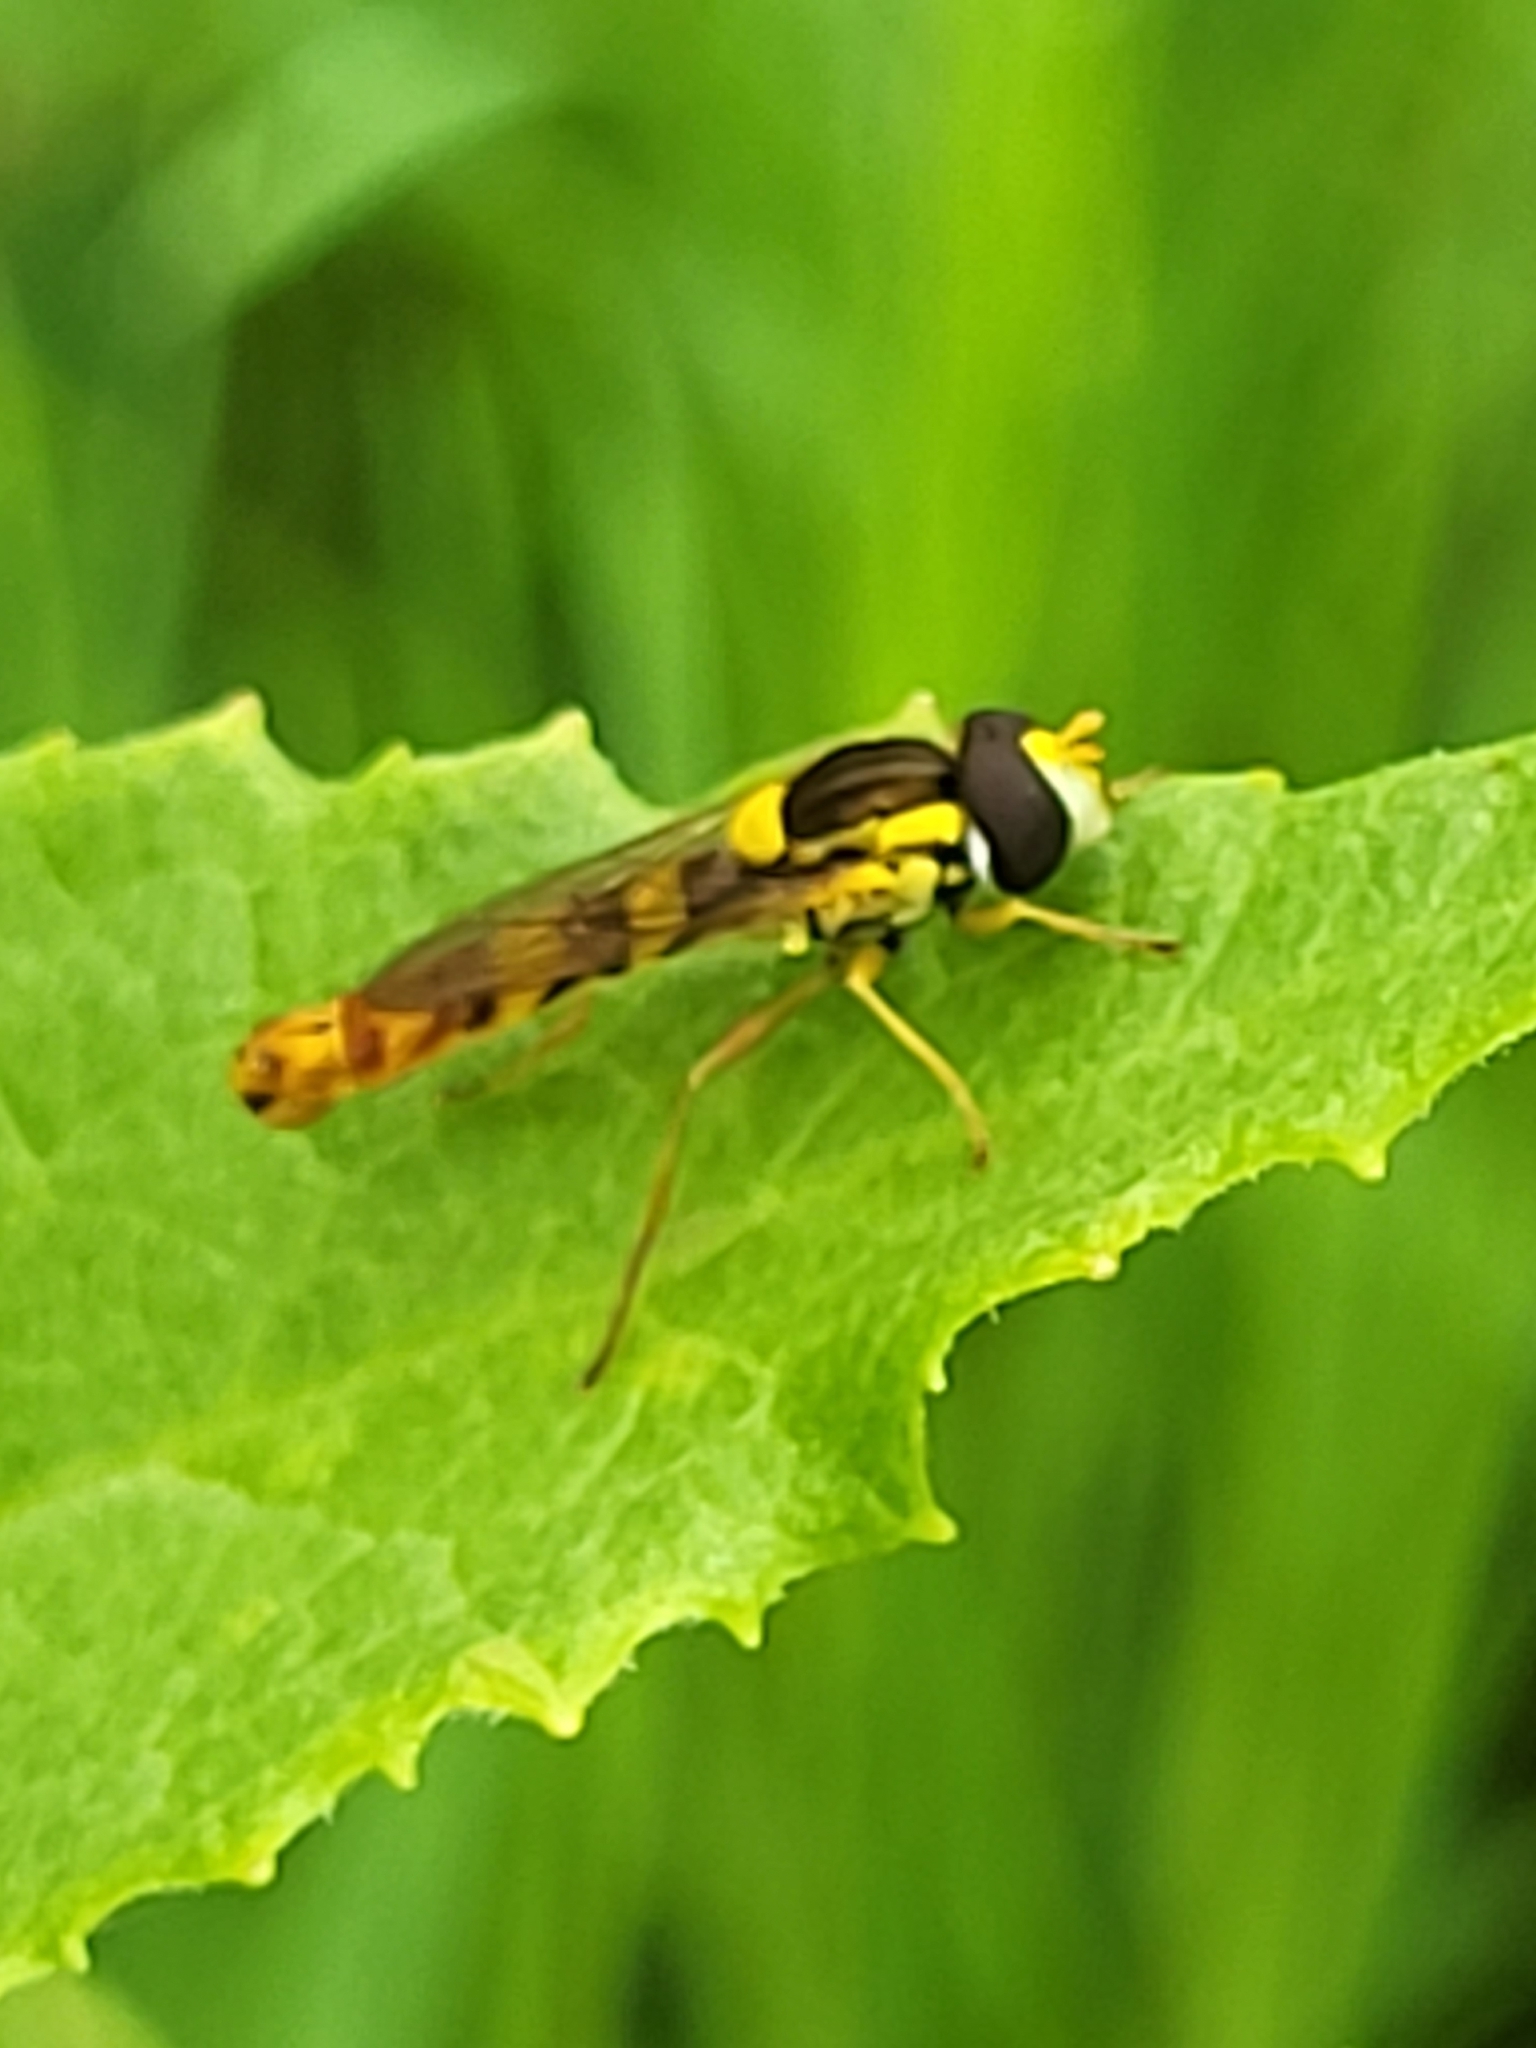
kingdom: Animalia
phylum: Arthropoda
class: Insecta
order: Diptera
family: Syrphidae
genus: Sphaerophoria
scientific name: Sphaerophoria scripta
